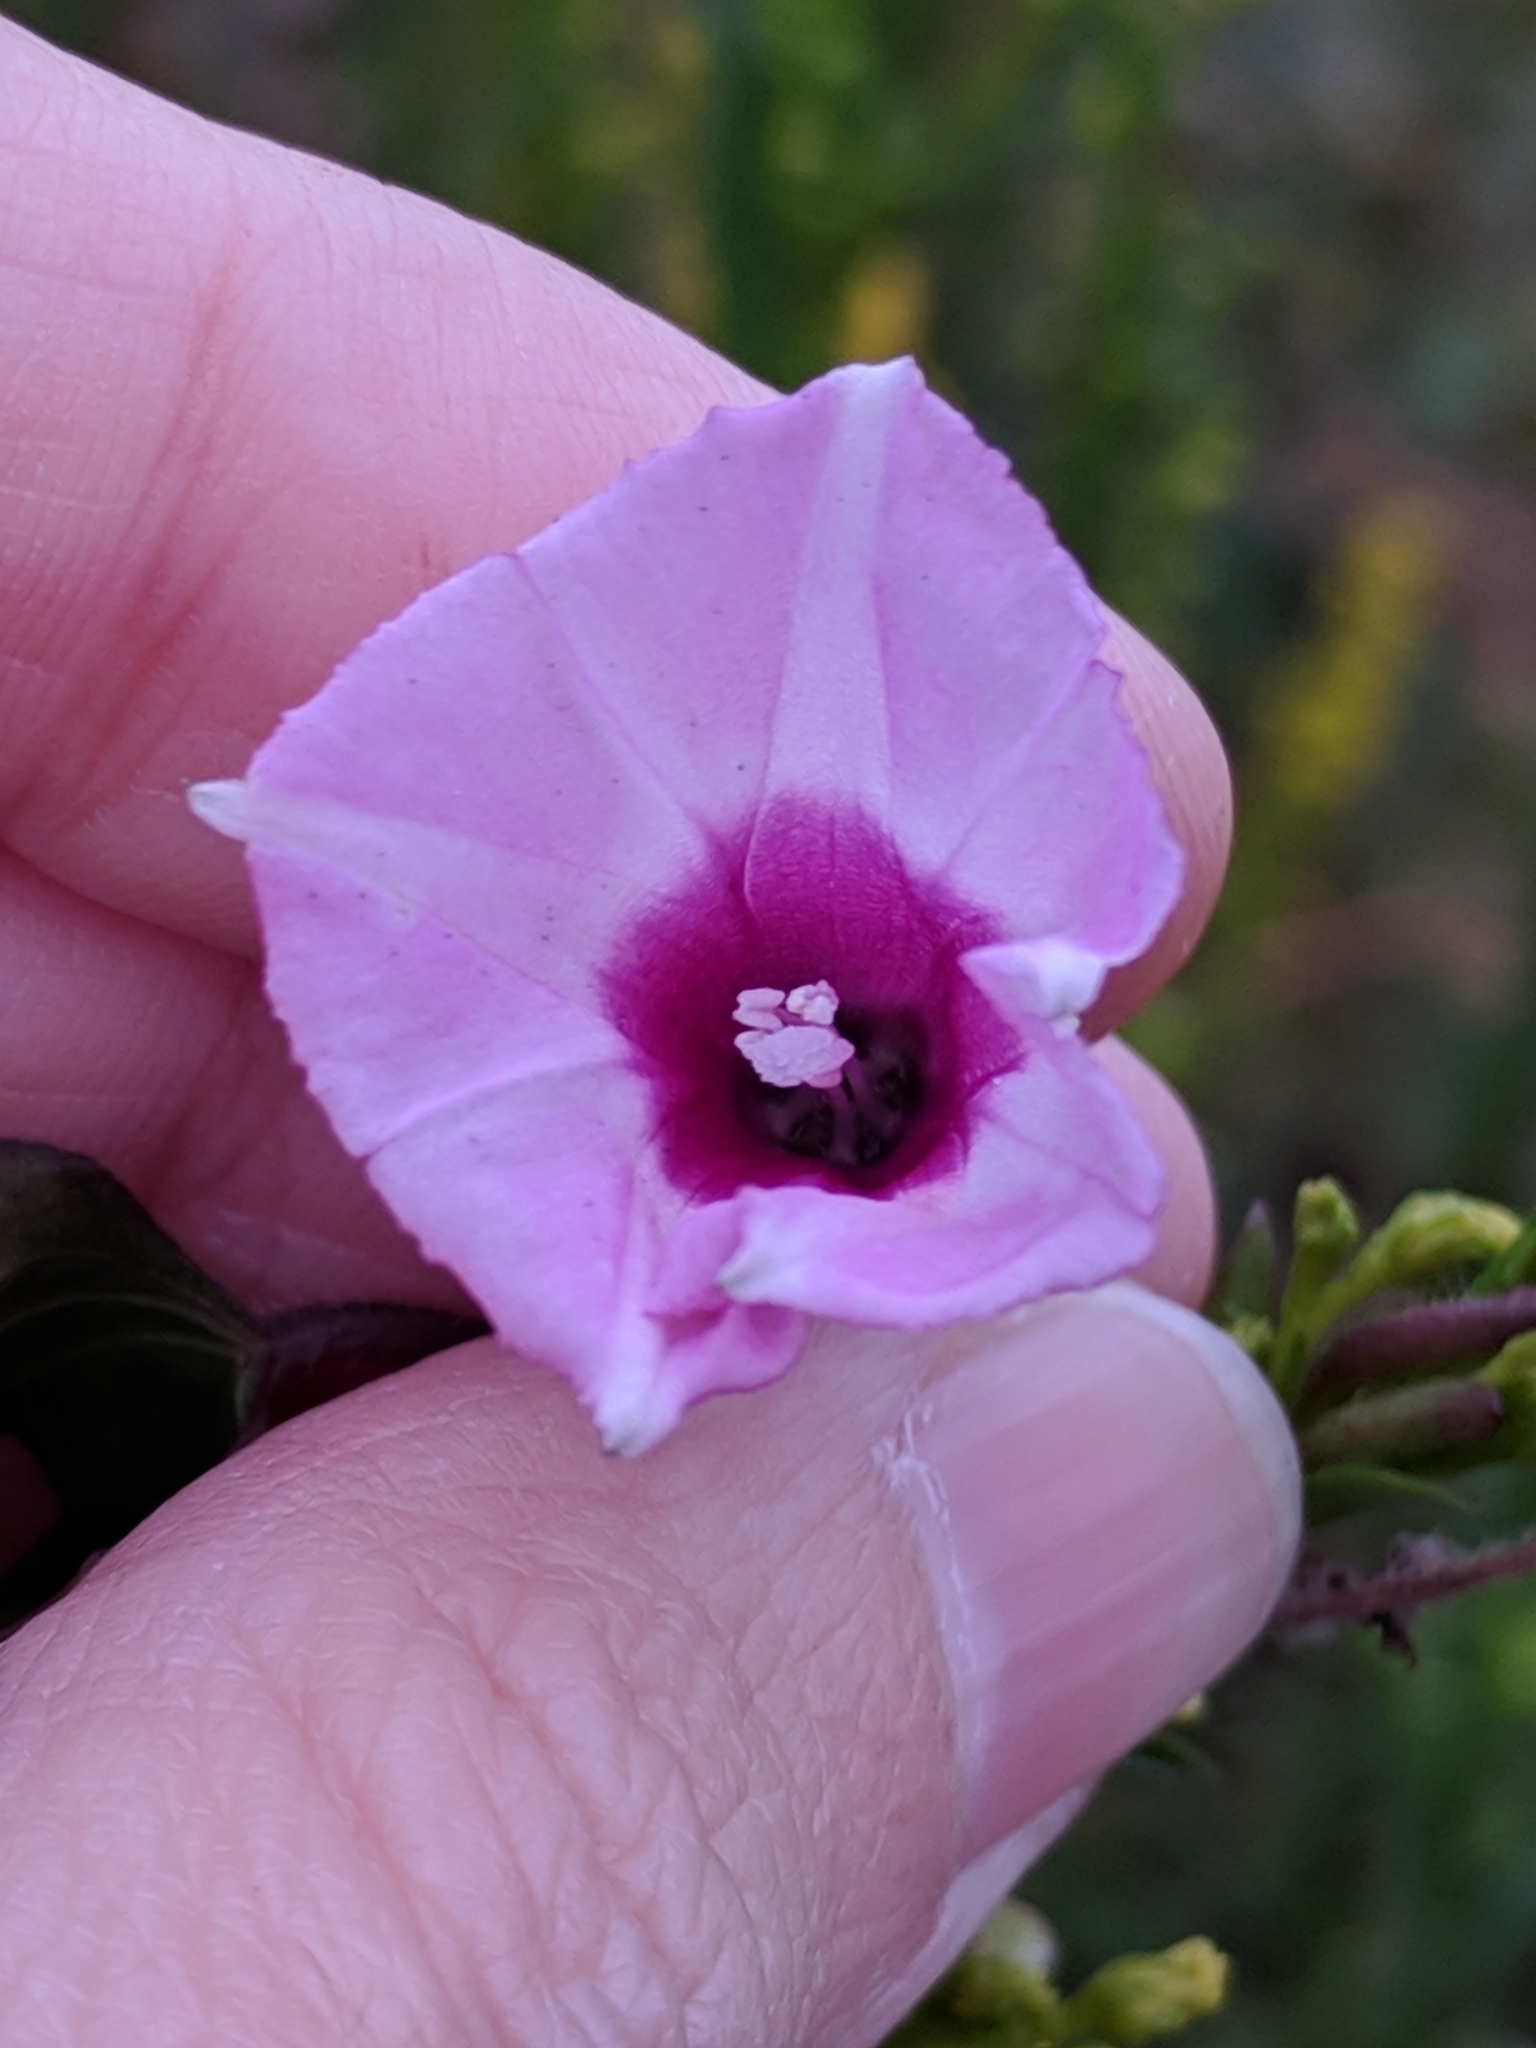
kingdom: Plantae
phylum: Tracheophyta
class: Magnoliopsida
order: Solanales
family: Convolvulaceae
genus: Ipomoea
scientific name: Ipomoea cordatotriloba
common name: Cotton morning glory
